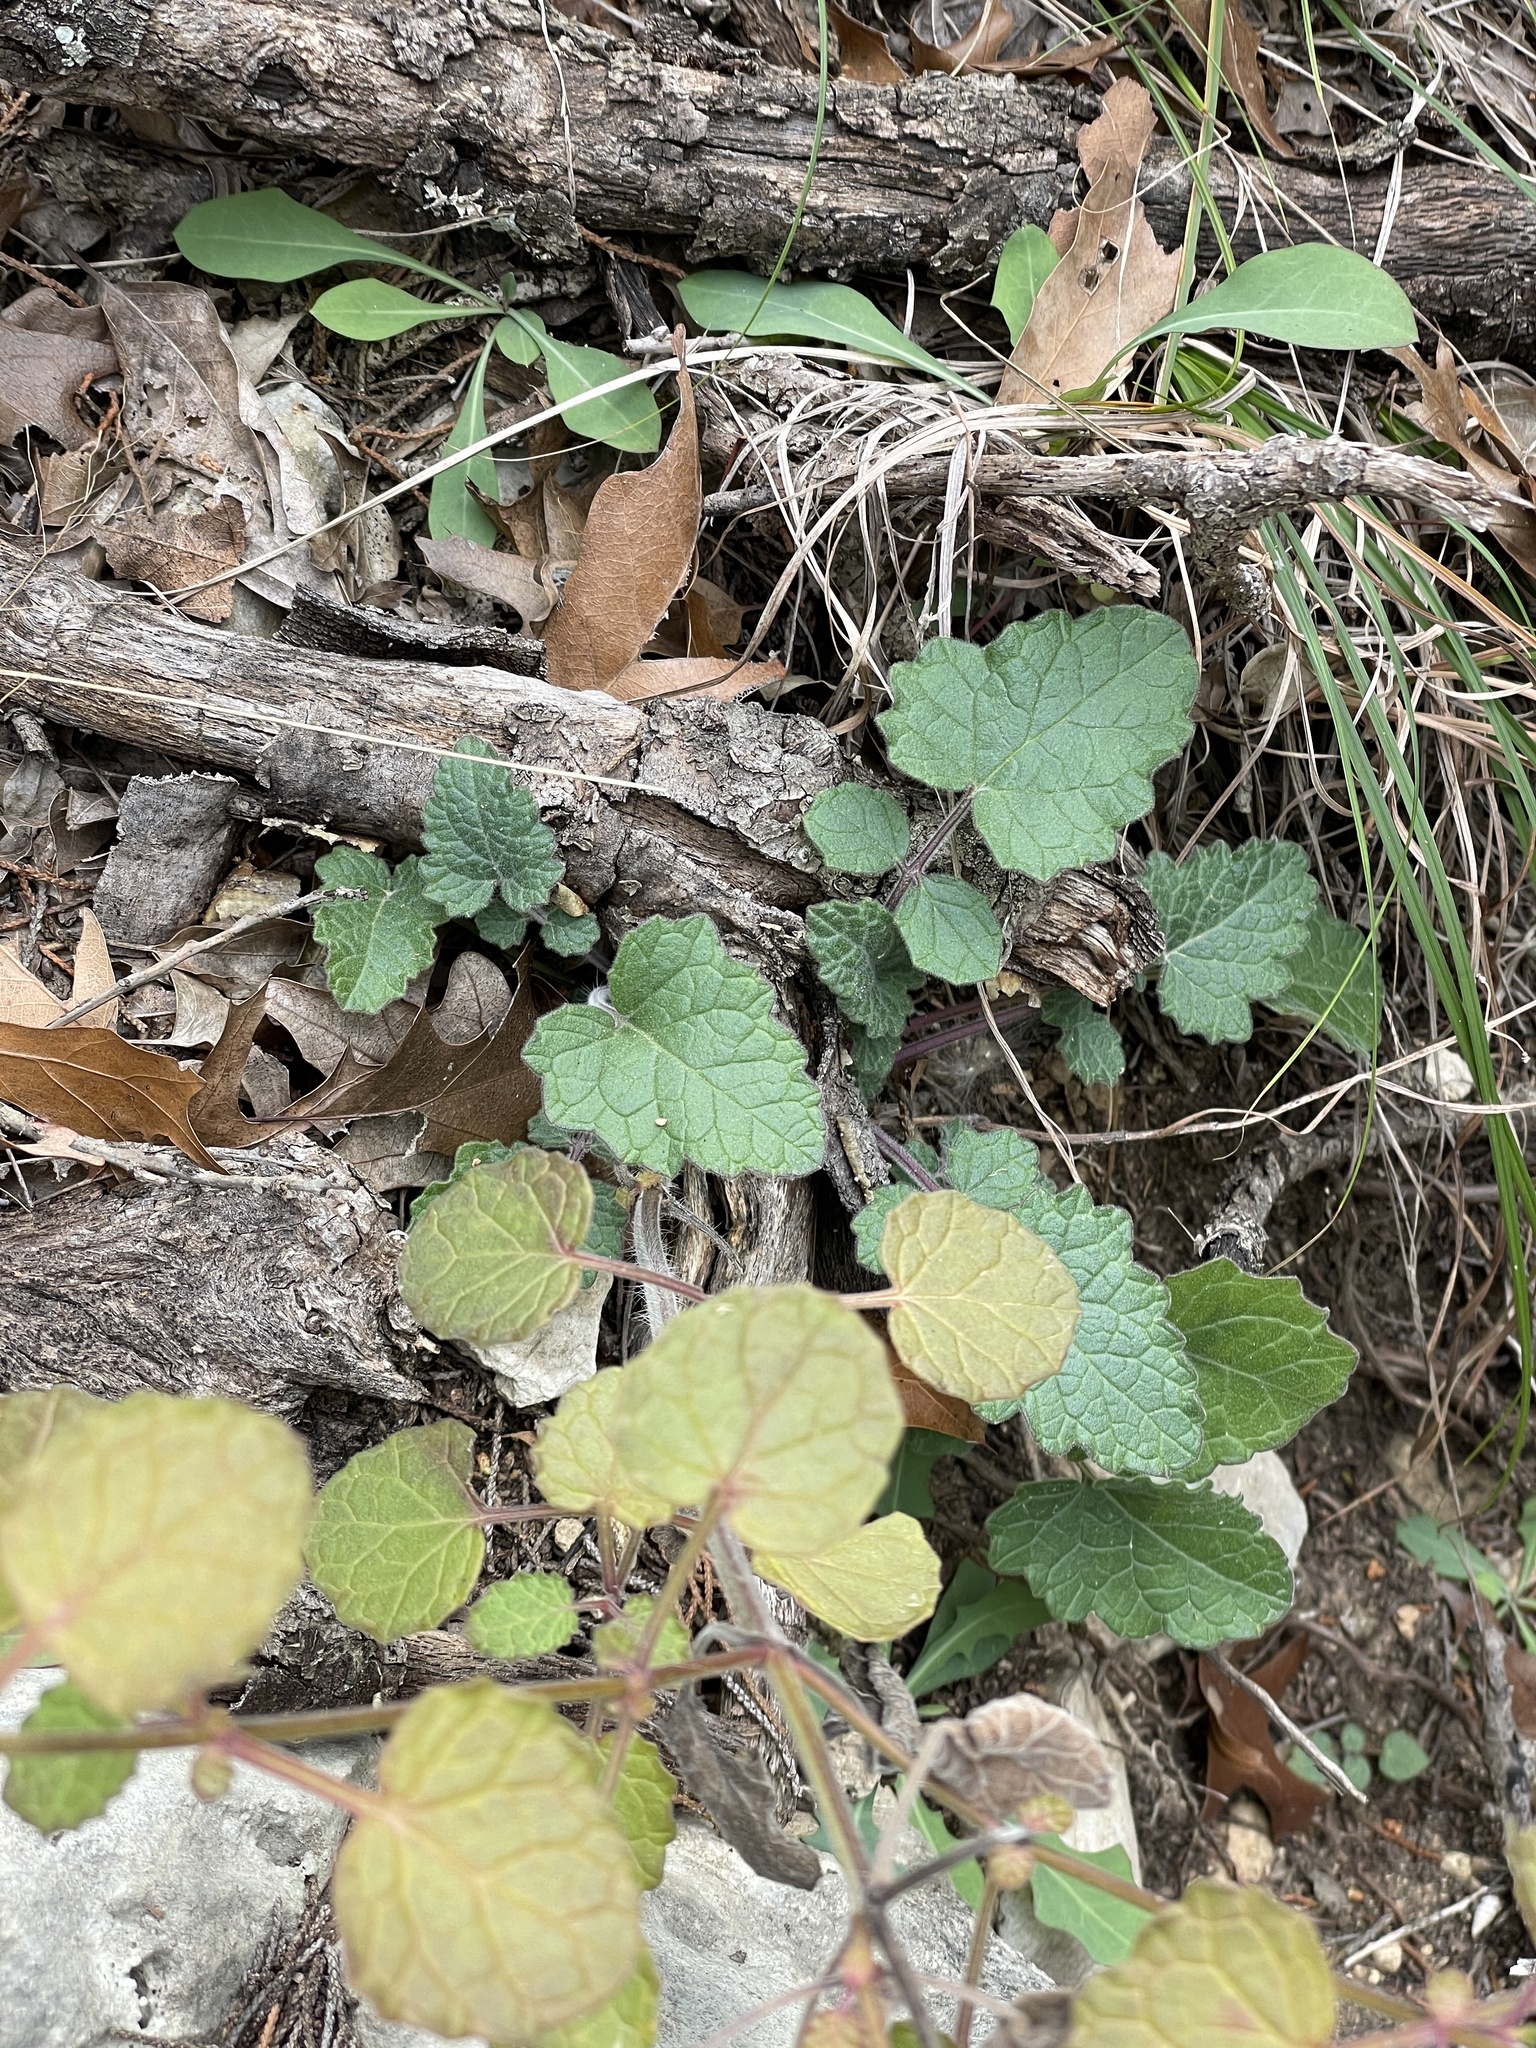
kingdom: Plantae
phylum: Tracheophyta
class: Magnoliopsida
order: Lamiales
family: Lamiaceae
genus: Salvia
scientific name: Salvia roemeriana
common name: Cedar sage
